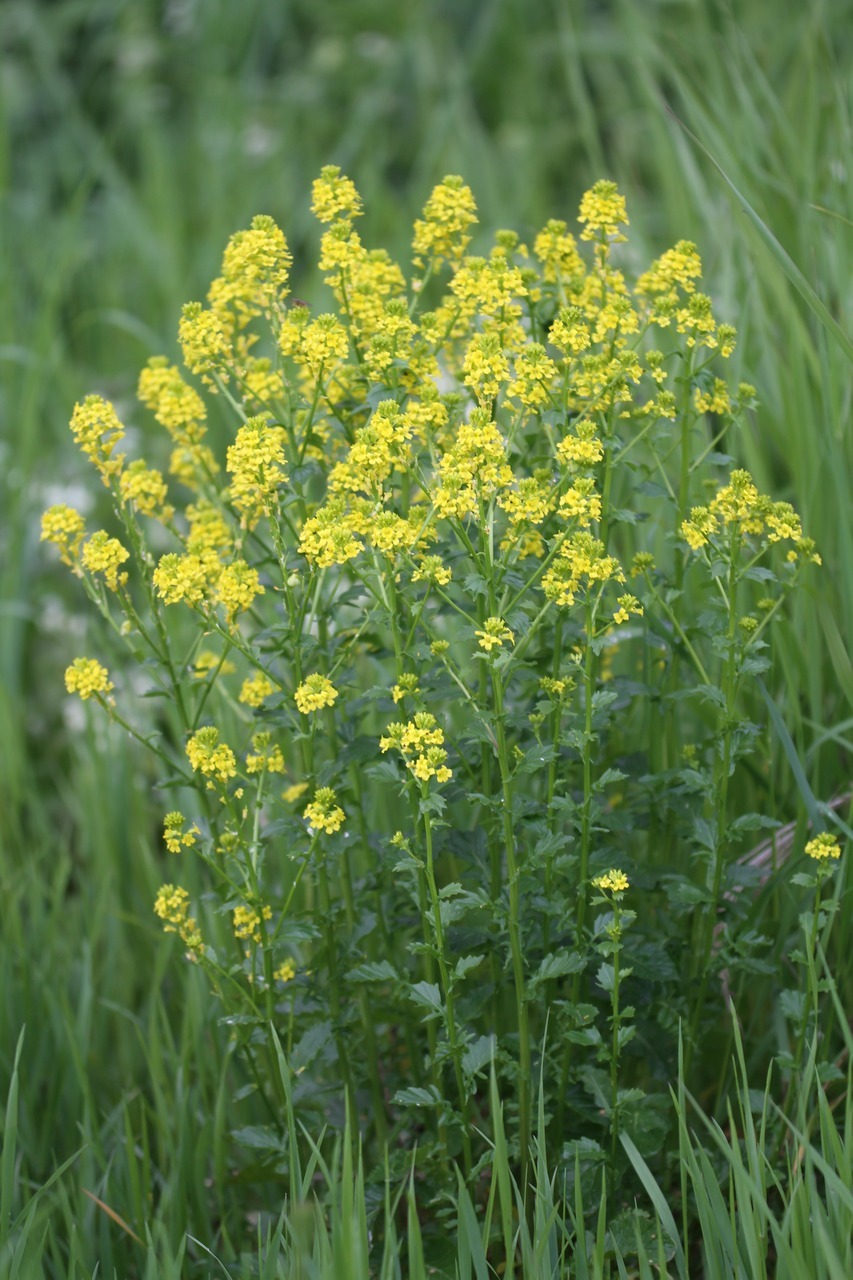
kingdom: Plantae
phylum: Tracheophyta
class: Magnoliopsida
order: Brassicales
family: Brassicaceae
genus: Barbarea
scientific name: Barbarea verna
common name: American cress
